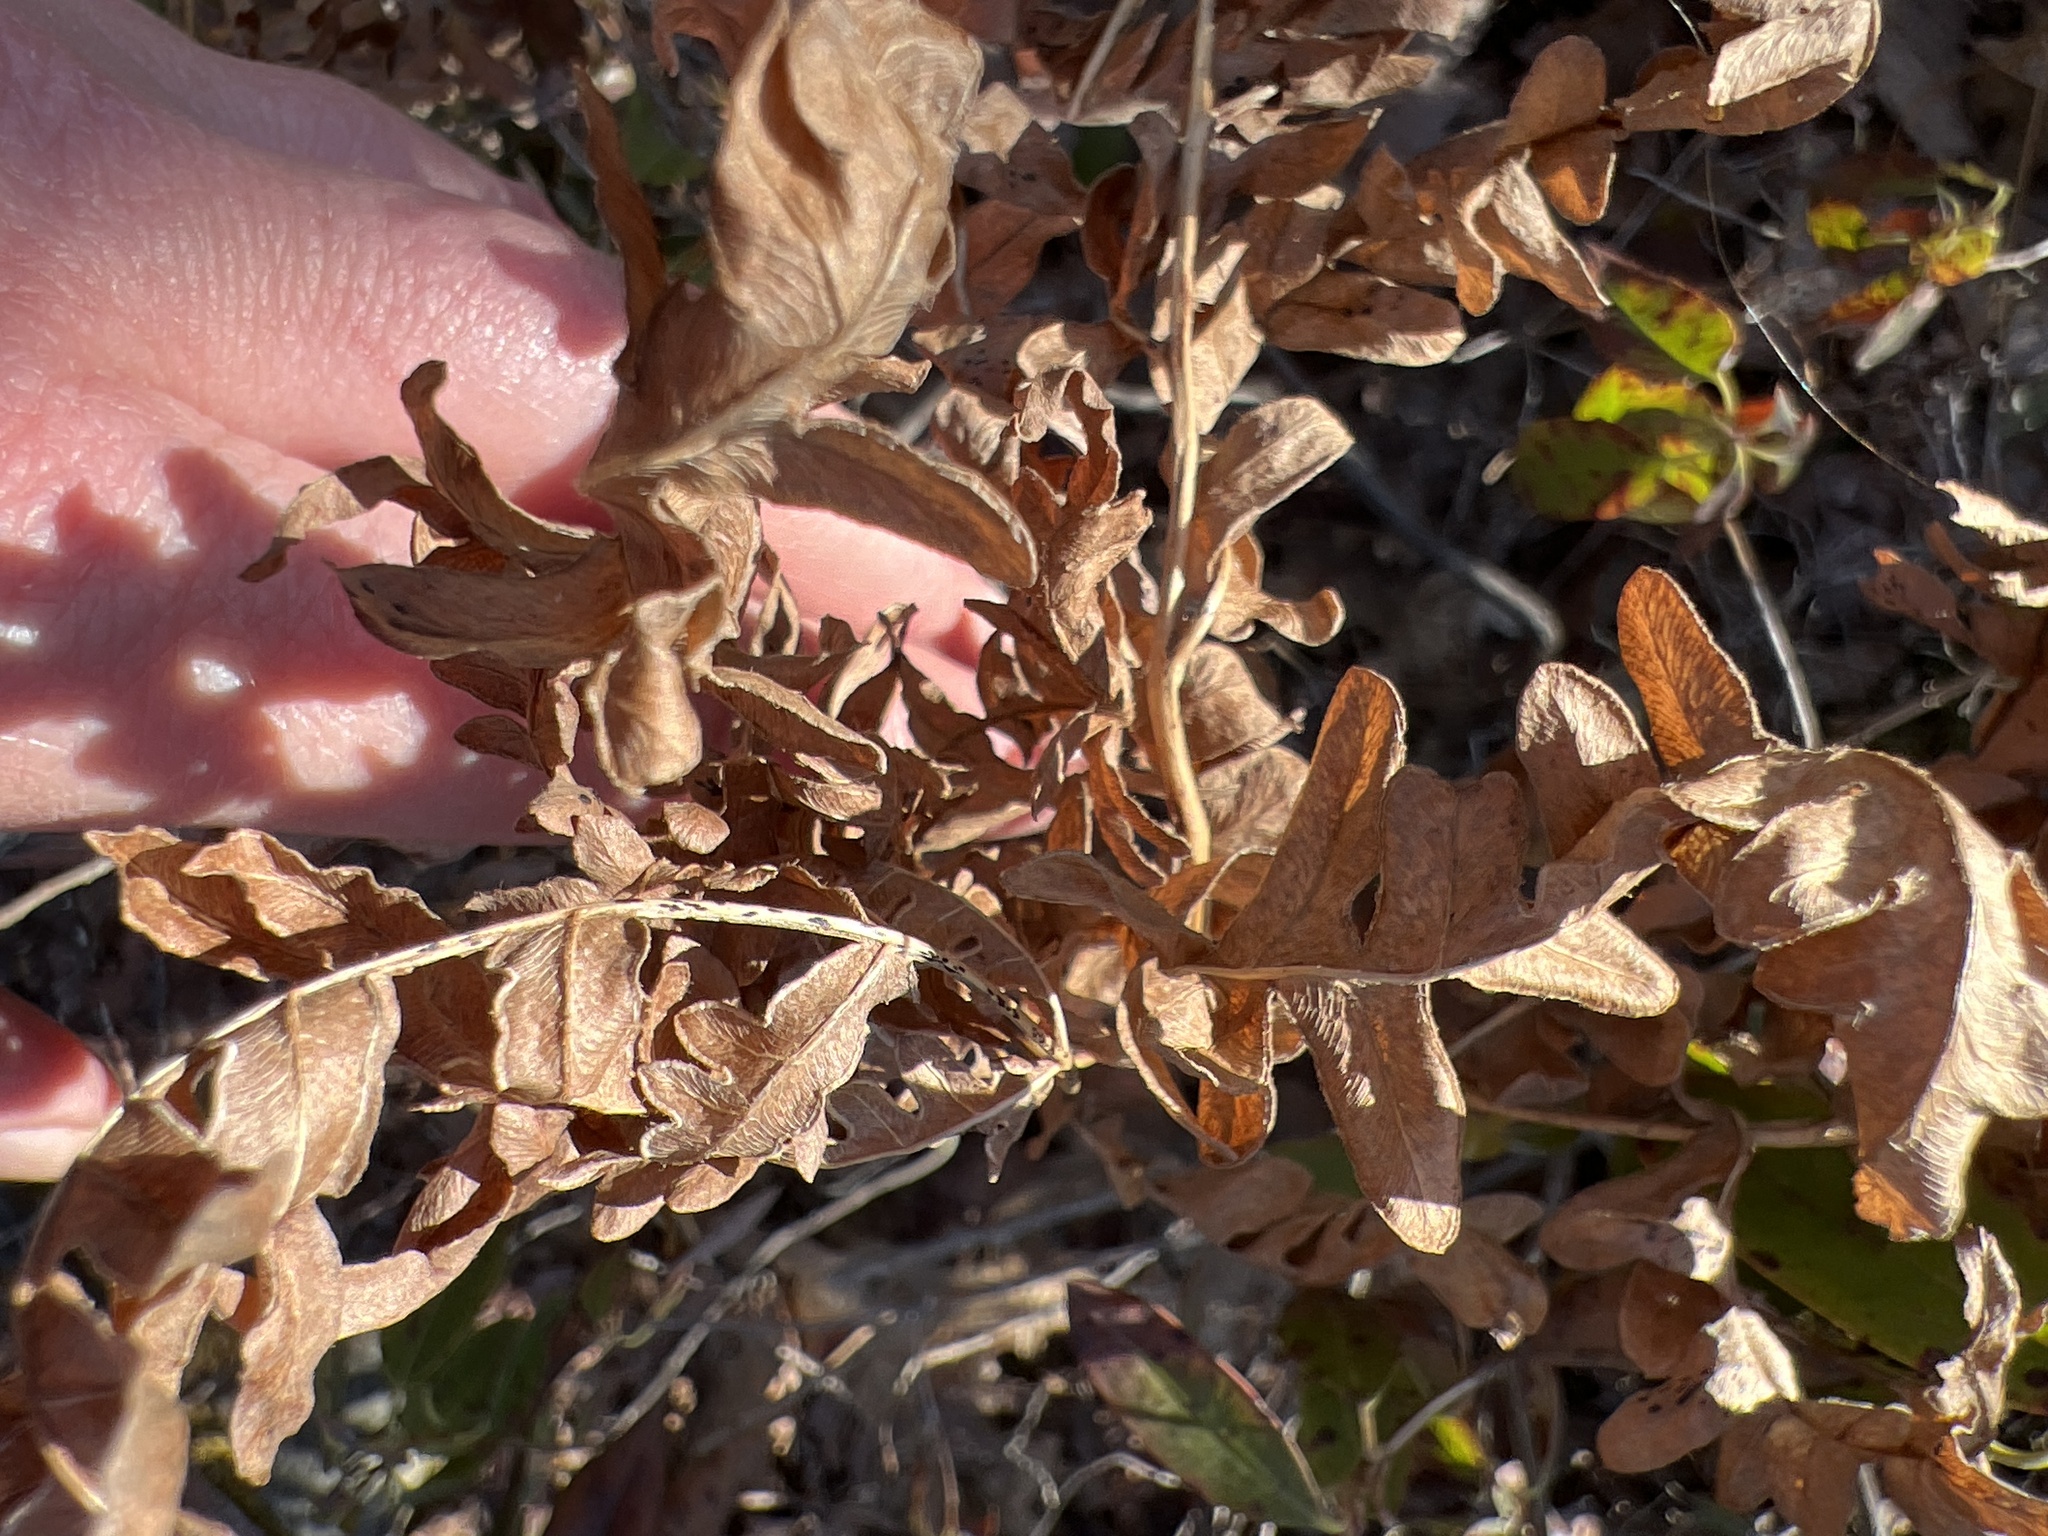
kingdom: Plantae
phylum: Tracheophyta
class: Polypodiopsida
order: Polypodiales
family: Dennstaedtiaceae
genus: Pteridium
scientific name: Pteridium aquilinum
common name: Bracken
